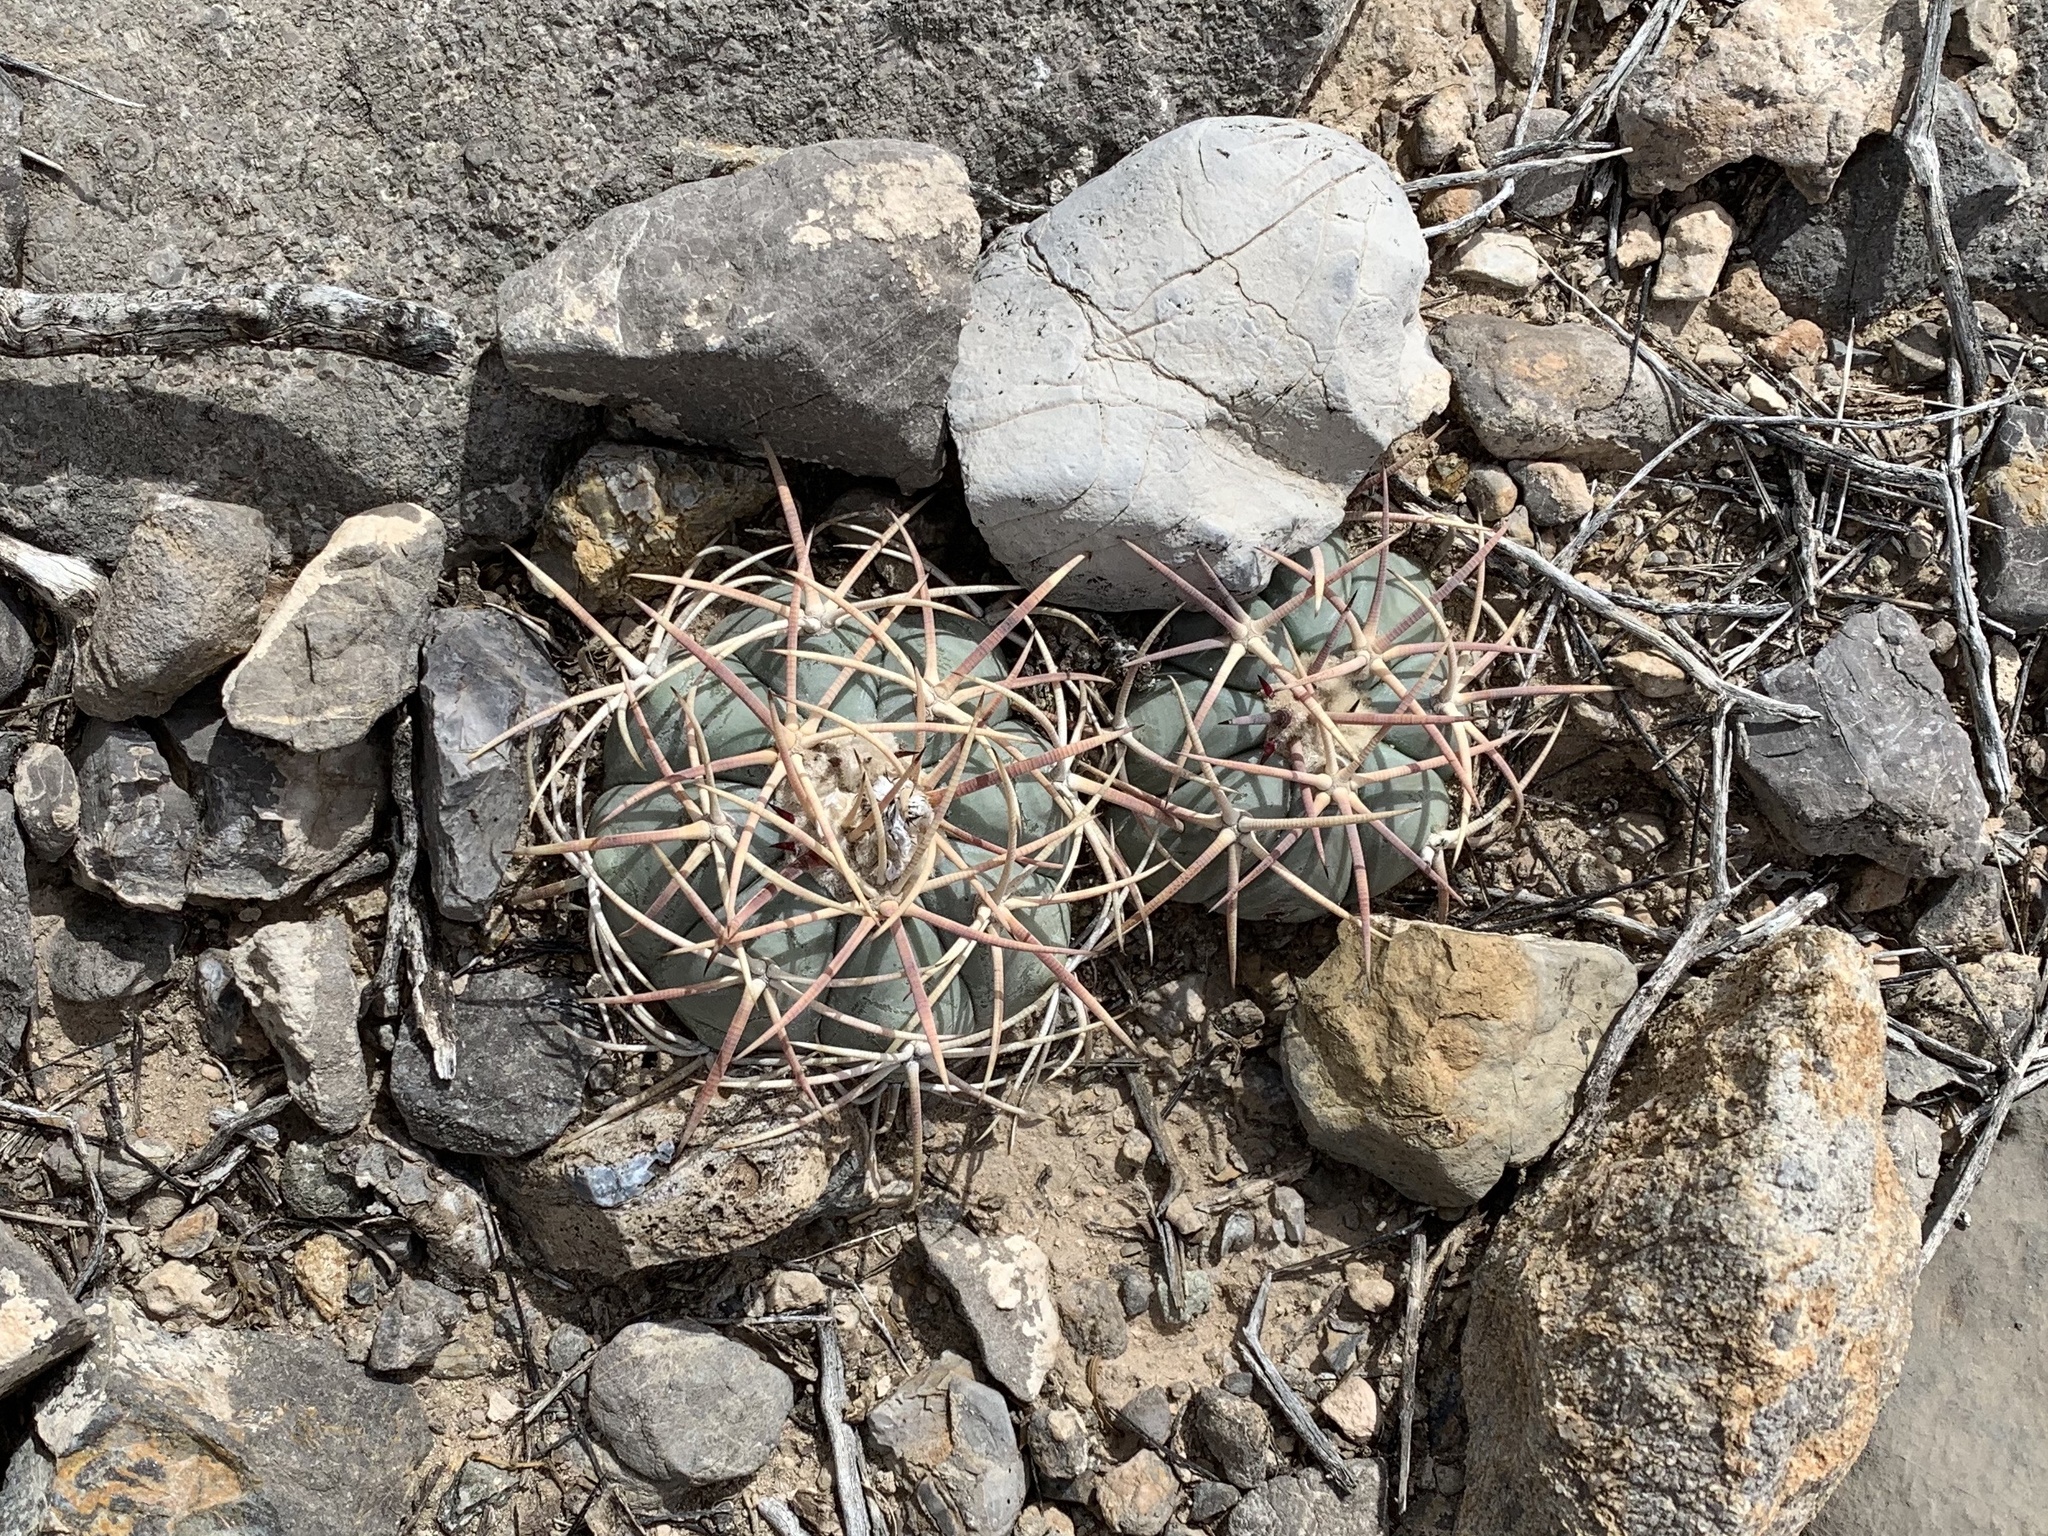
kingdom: Plantae
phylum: Tracheophyta
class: Magnoliopsida
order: Caryophyllales
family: Cactaceae
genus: Echinocactus
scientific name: Echinocactus horizonthalonius
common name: Devilshead
